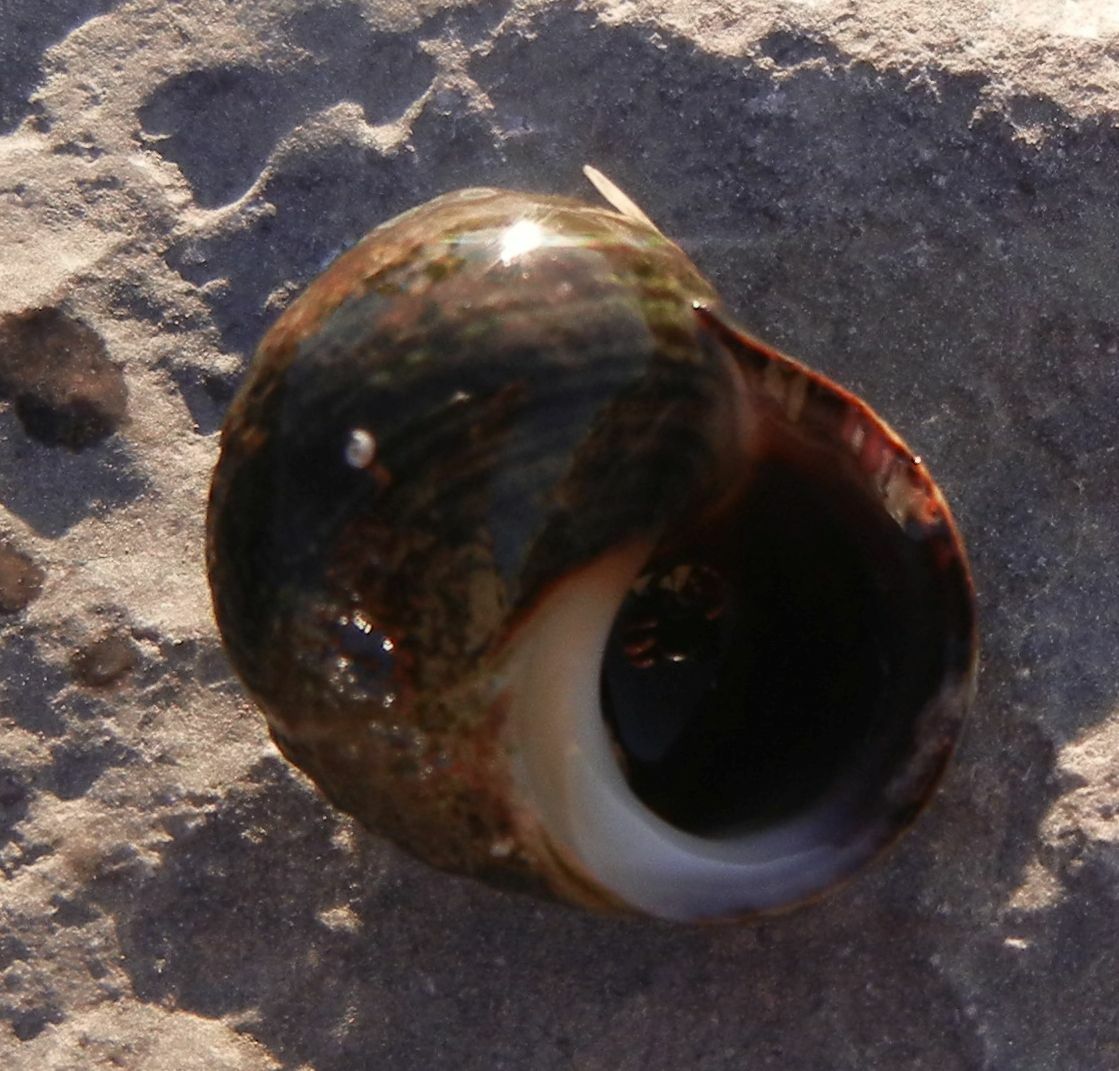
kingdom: Animalia
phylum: Mollusca
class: Gastropoda
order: Littorinimorpha
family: Littorinidae
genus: Littorina
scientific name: Littorina littorea
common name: Common periwinkle
